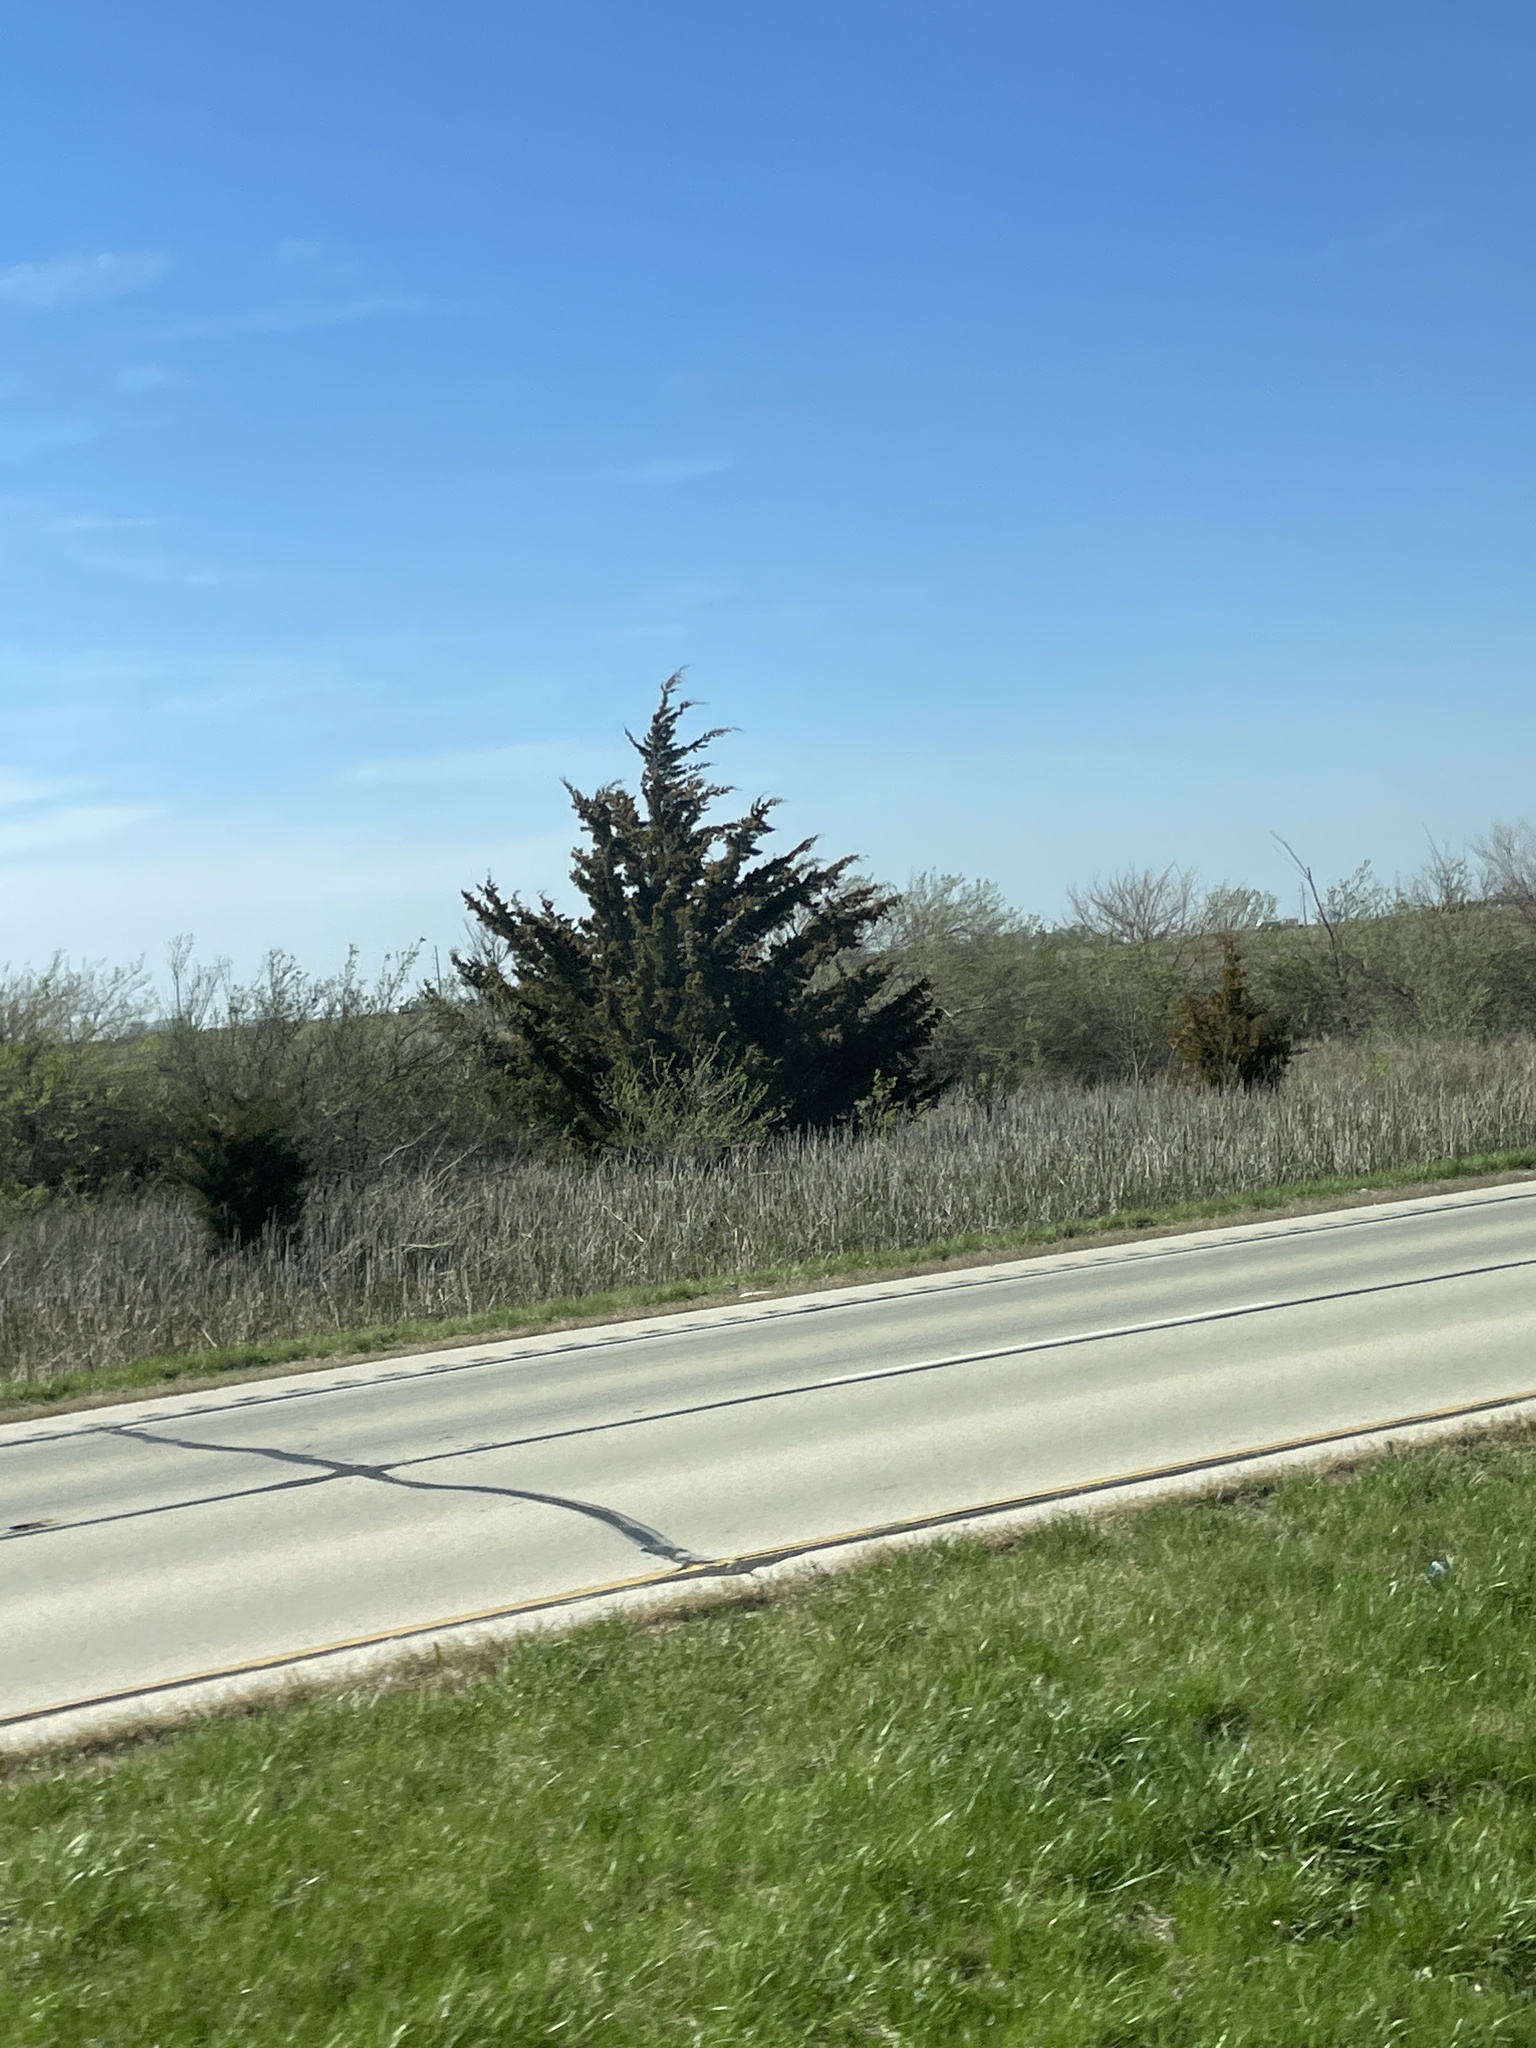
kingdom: Plantae
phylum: Tracheophyta
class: Pinopsida
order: Pinales
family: Cupressaceae
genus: Juniperus
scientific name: Juniperus virginiana
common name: Red juniper
